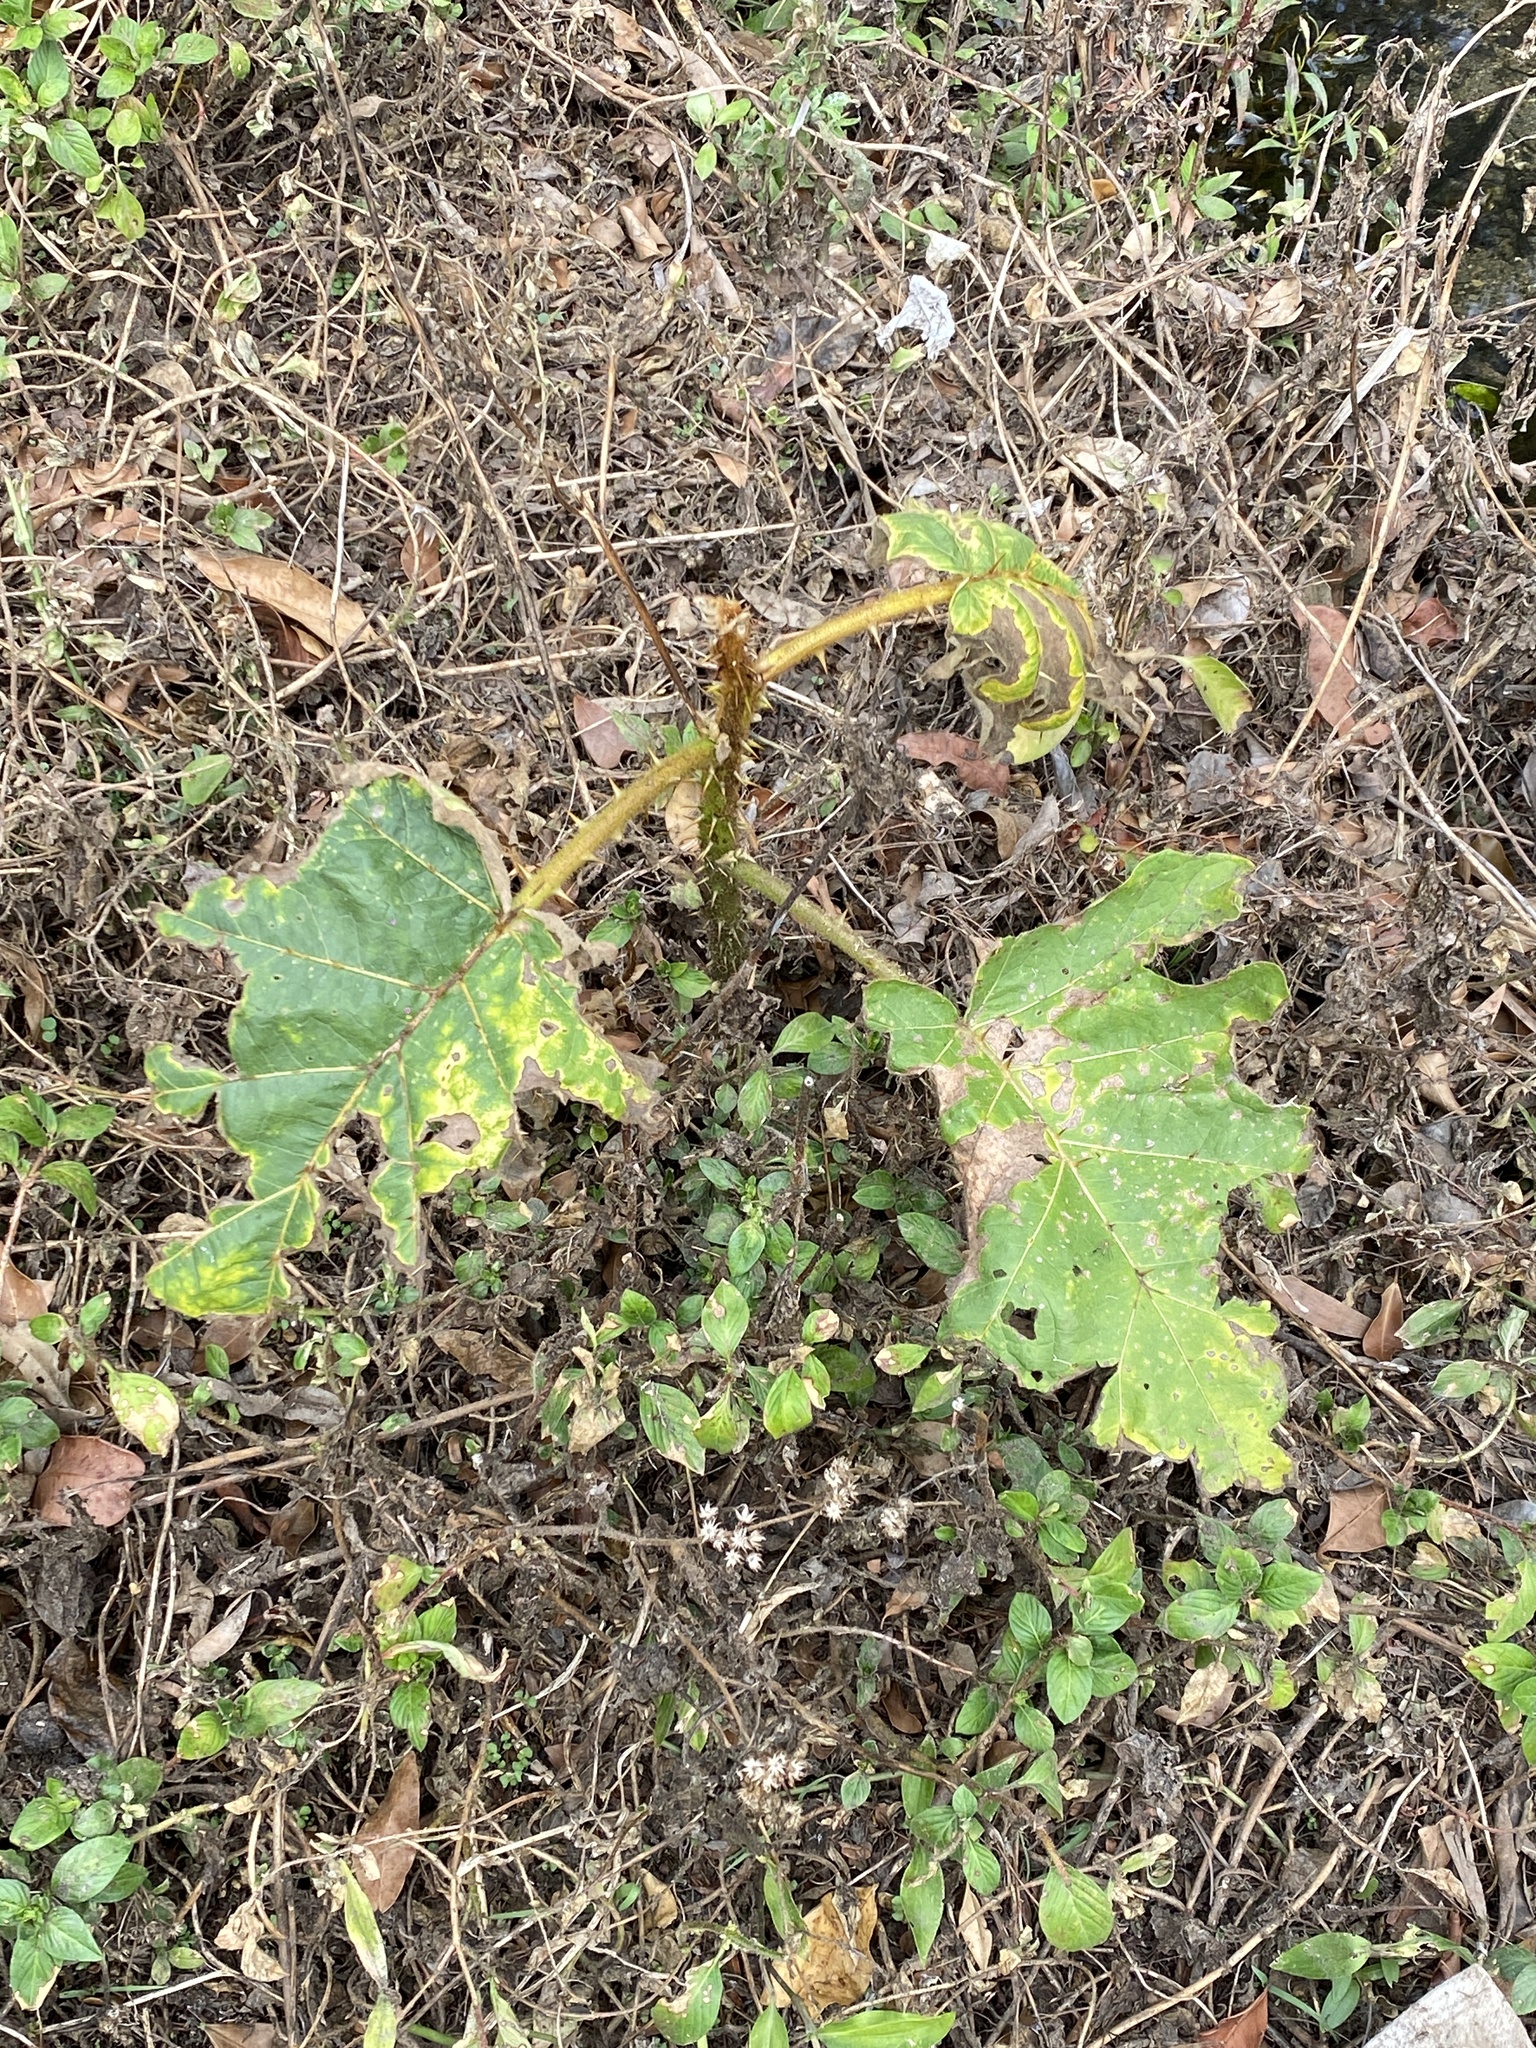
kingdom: Plantae
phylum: Tracheophyta
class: Magnoliopsida
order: Solanales
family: Solanaceae
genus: Solanum
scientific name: Solanum chrysotrichum
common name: Nightshade
